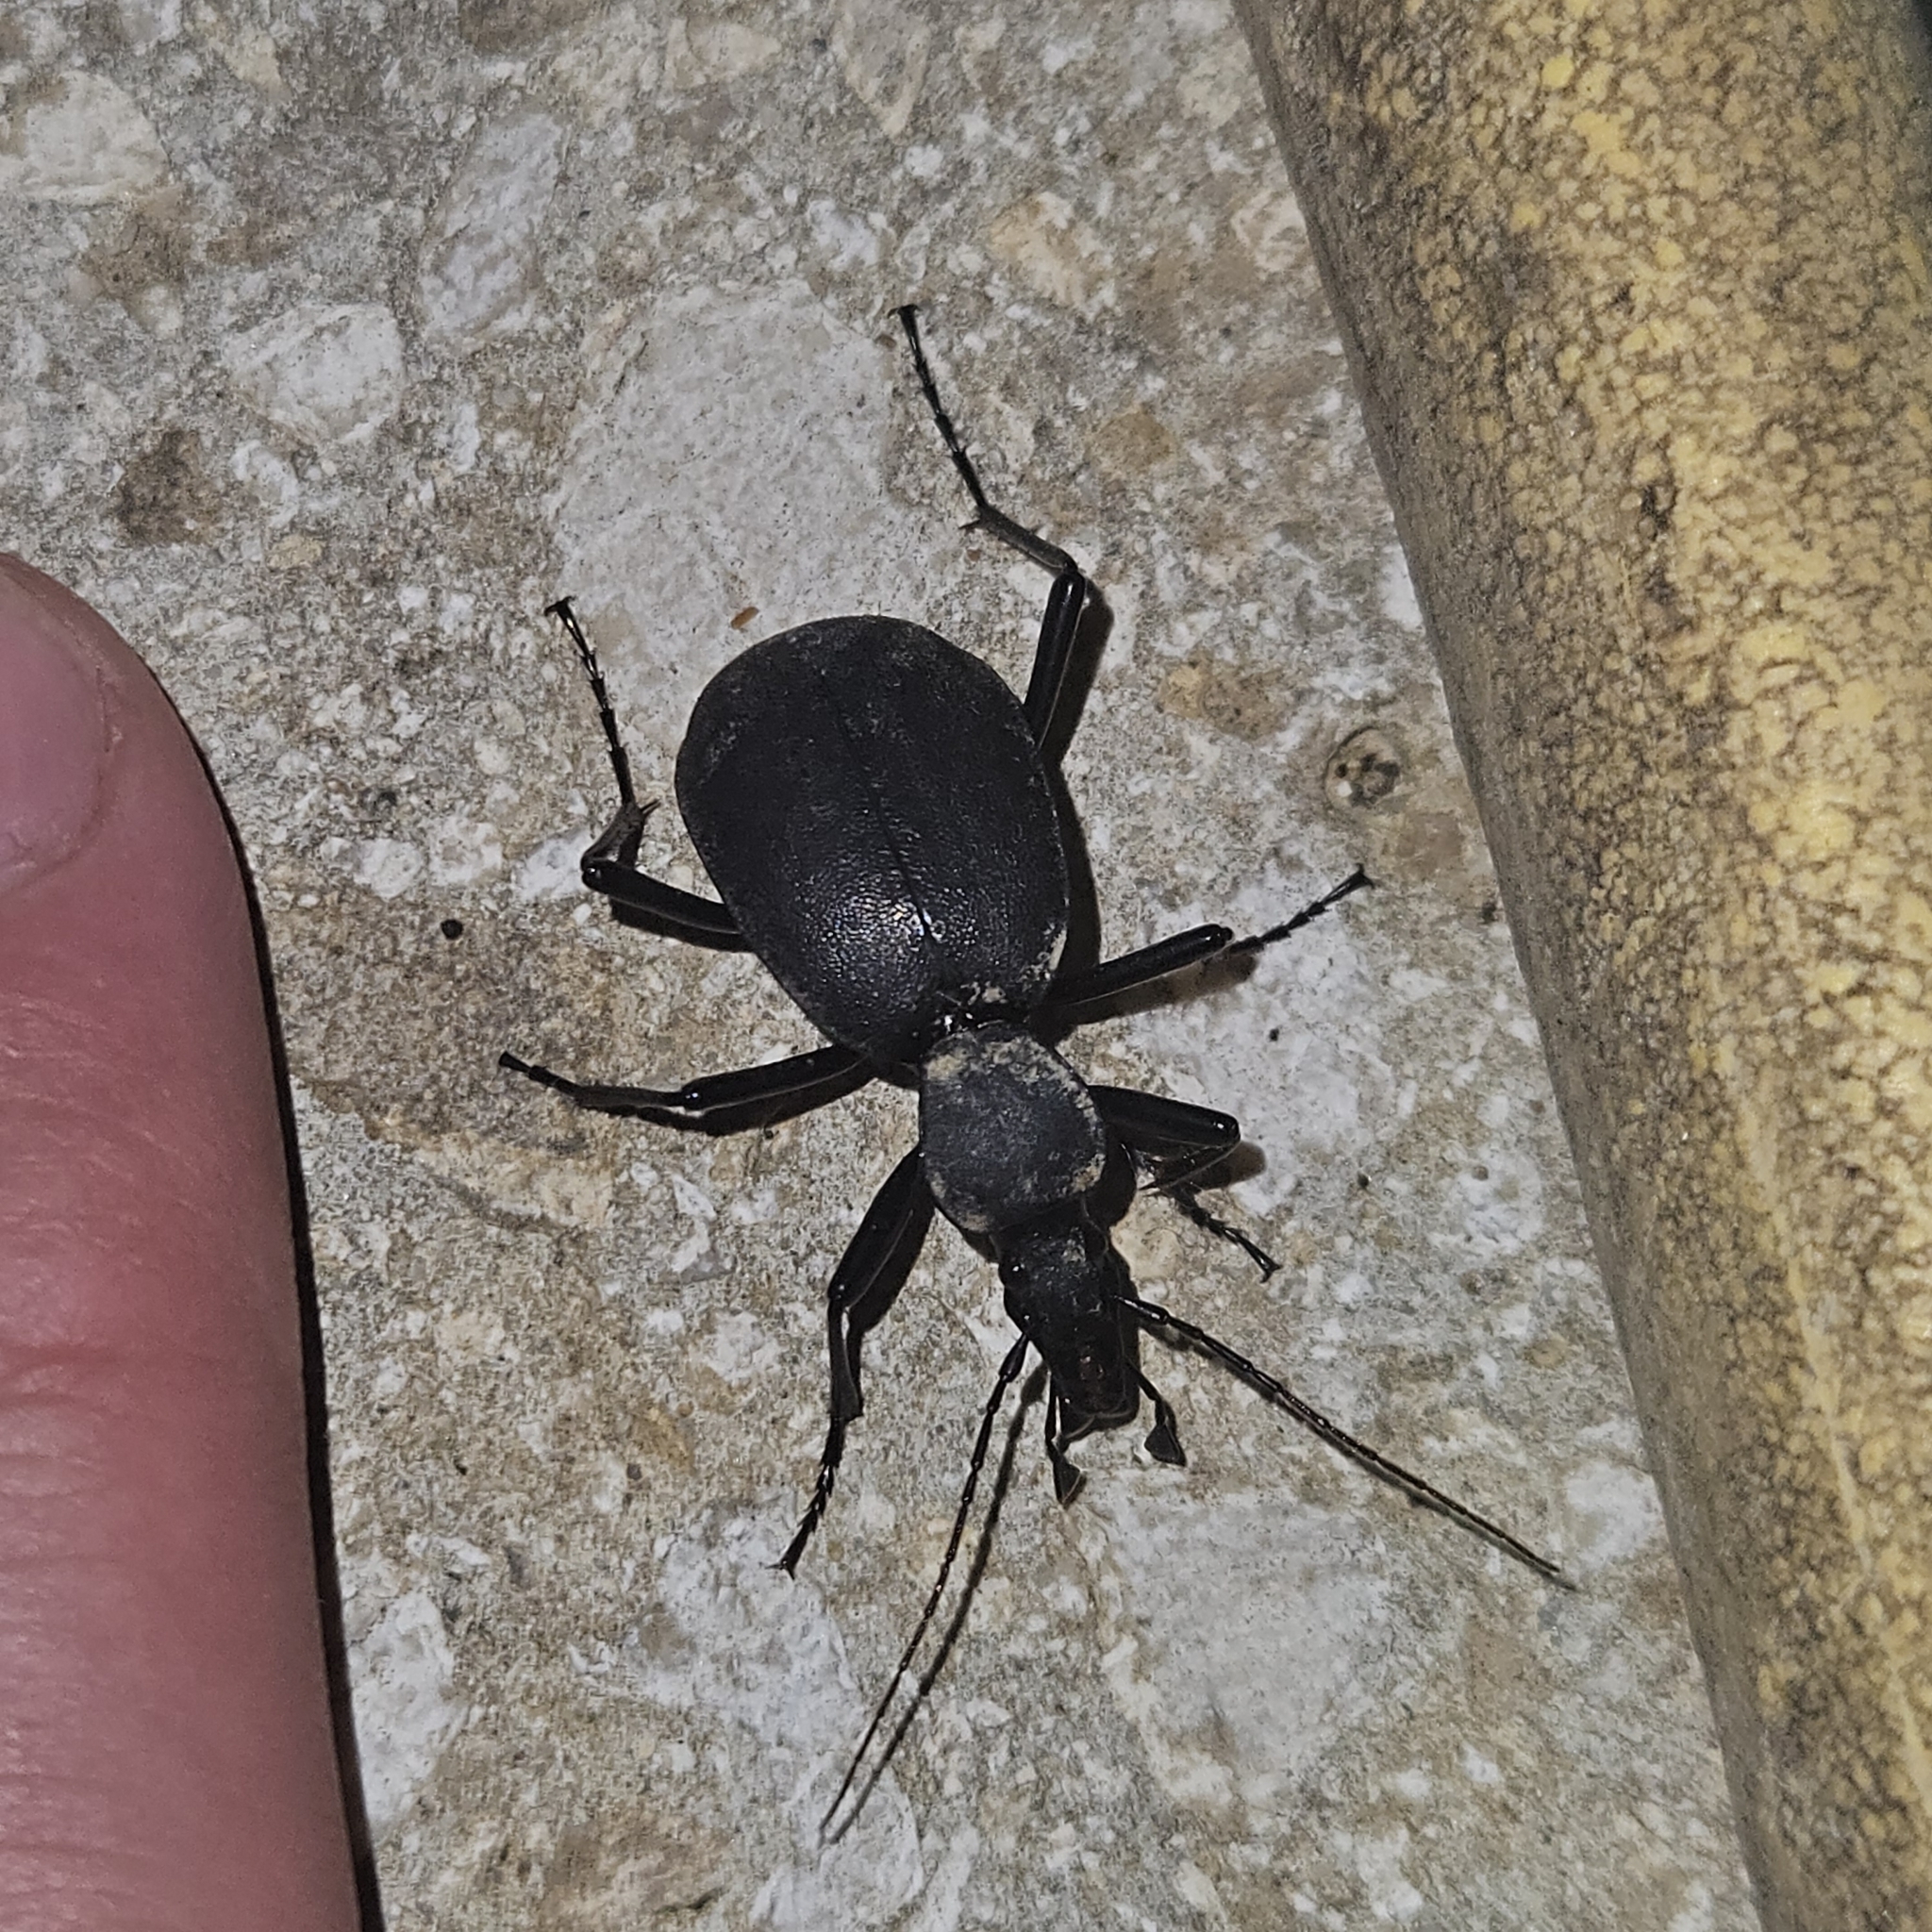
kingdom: Animalia
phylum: Arthropoda
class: Insecta
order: Coleoptera
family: Carabidae
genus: Cychrus
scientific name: Cychrus italicus
